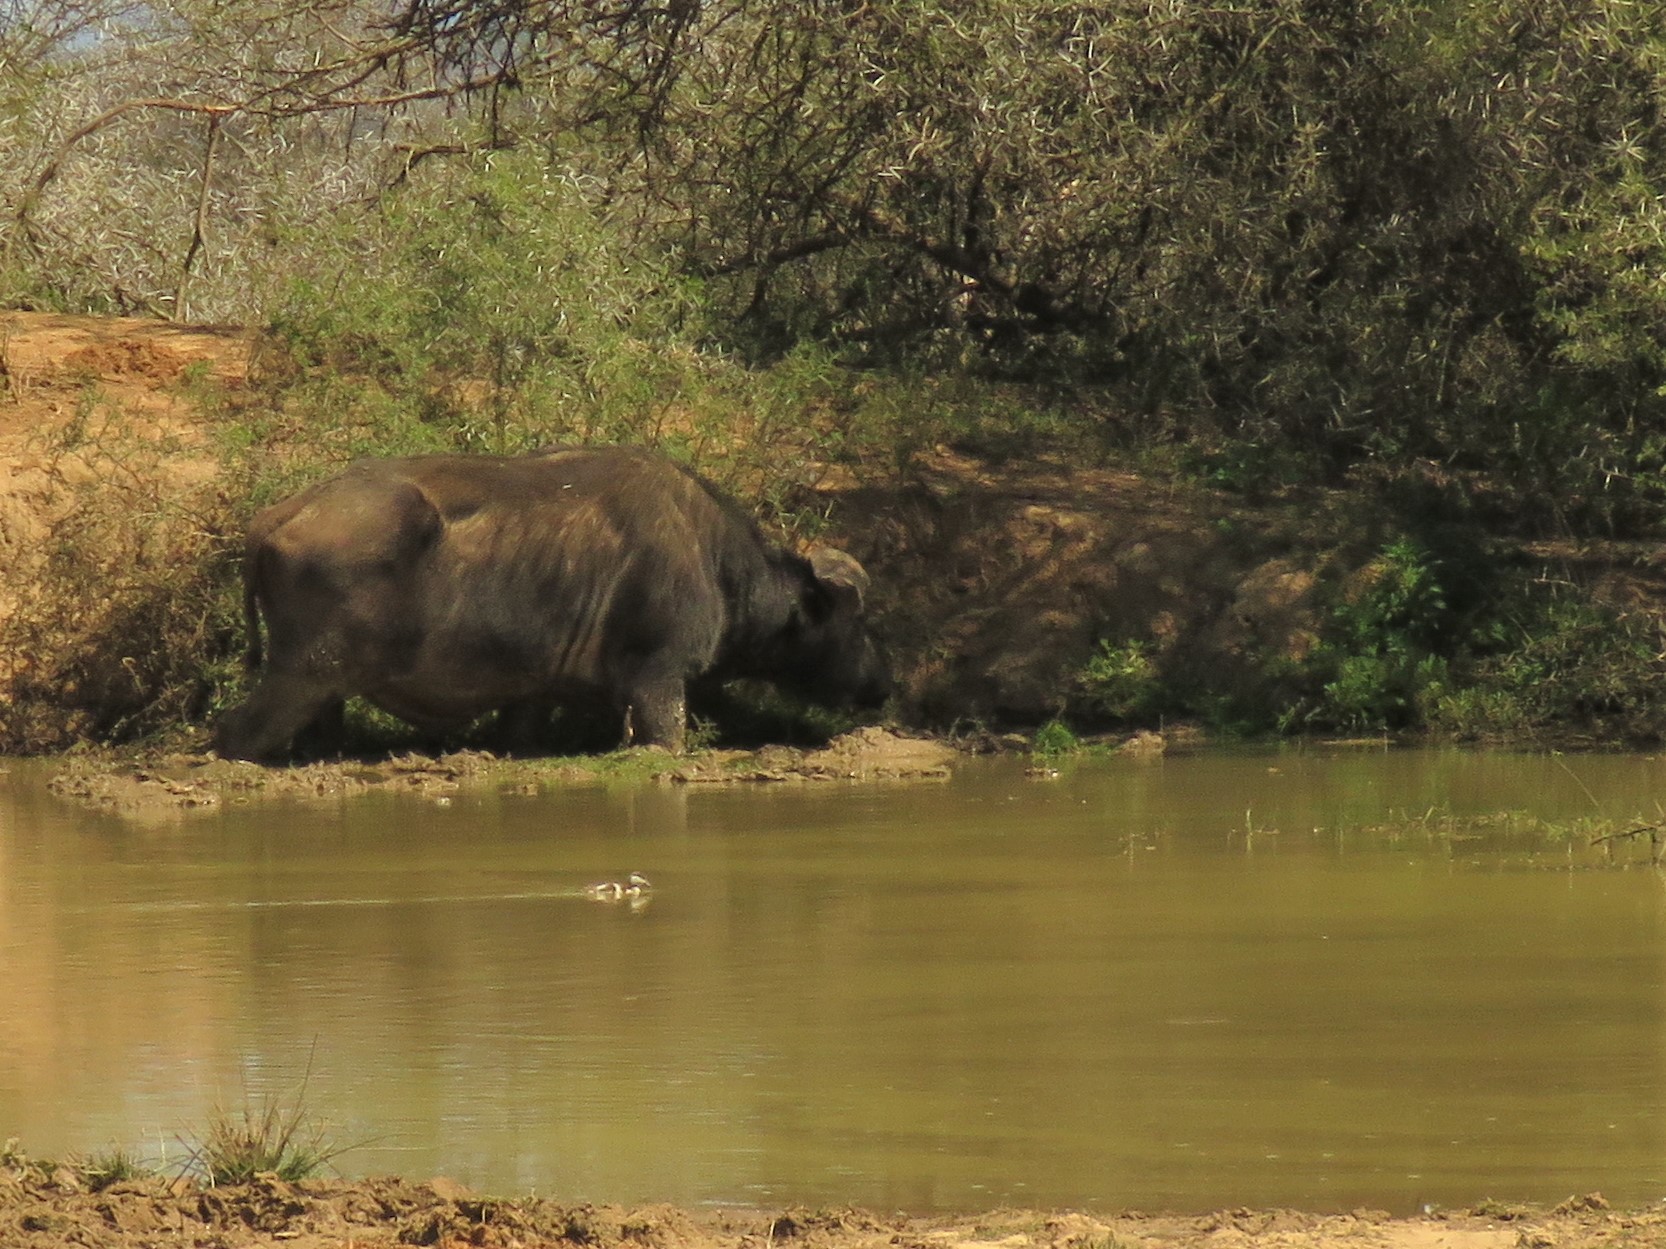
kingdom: Animalia
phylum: Chordata
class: Mammalia
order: Artiodactyla
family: Bovidae
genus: Syncerus
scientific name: Syncerus caffer
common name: African buffalo
